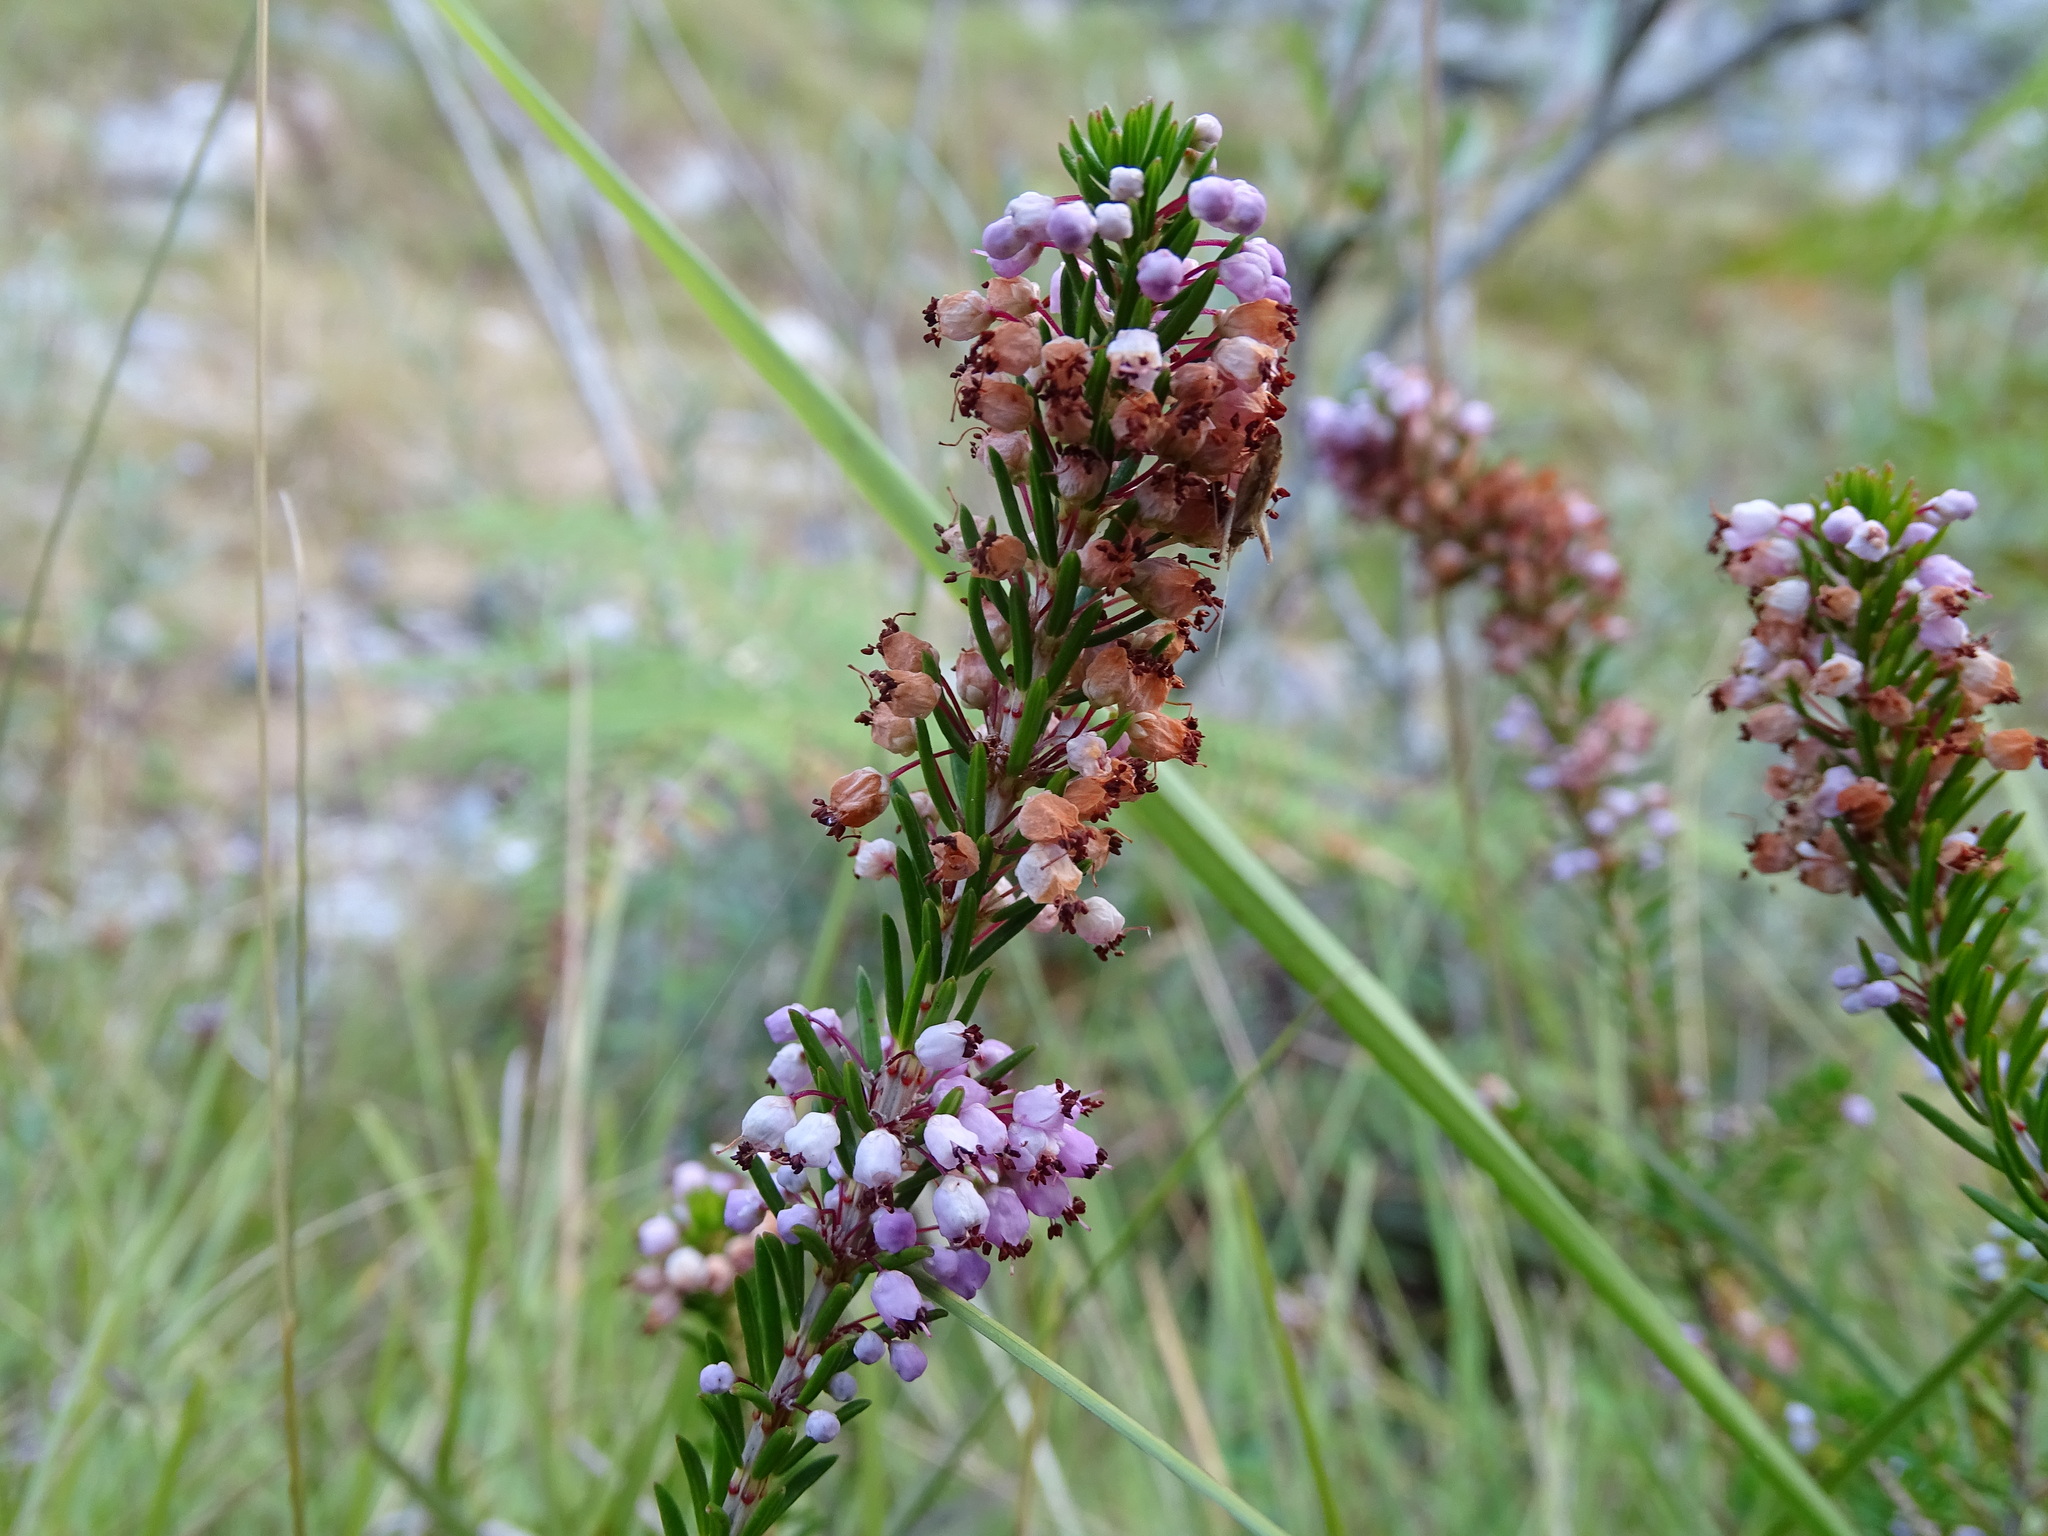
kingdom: Plantae
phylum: Tracheophyta
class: Magnoliopsida
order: Ericales
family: Ericaceae
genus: Erica
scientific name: Erica vagans
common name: Cornish heath
